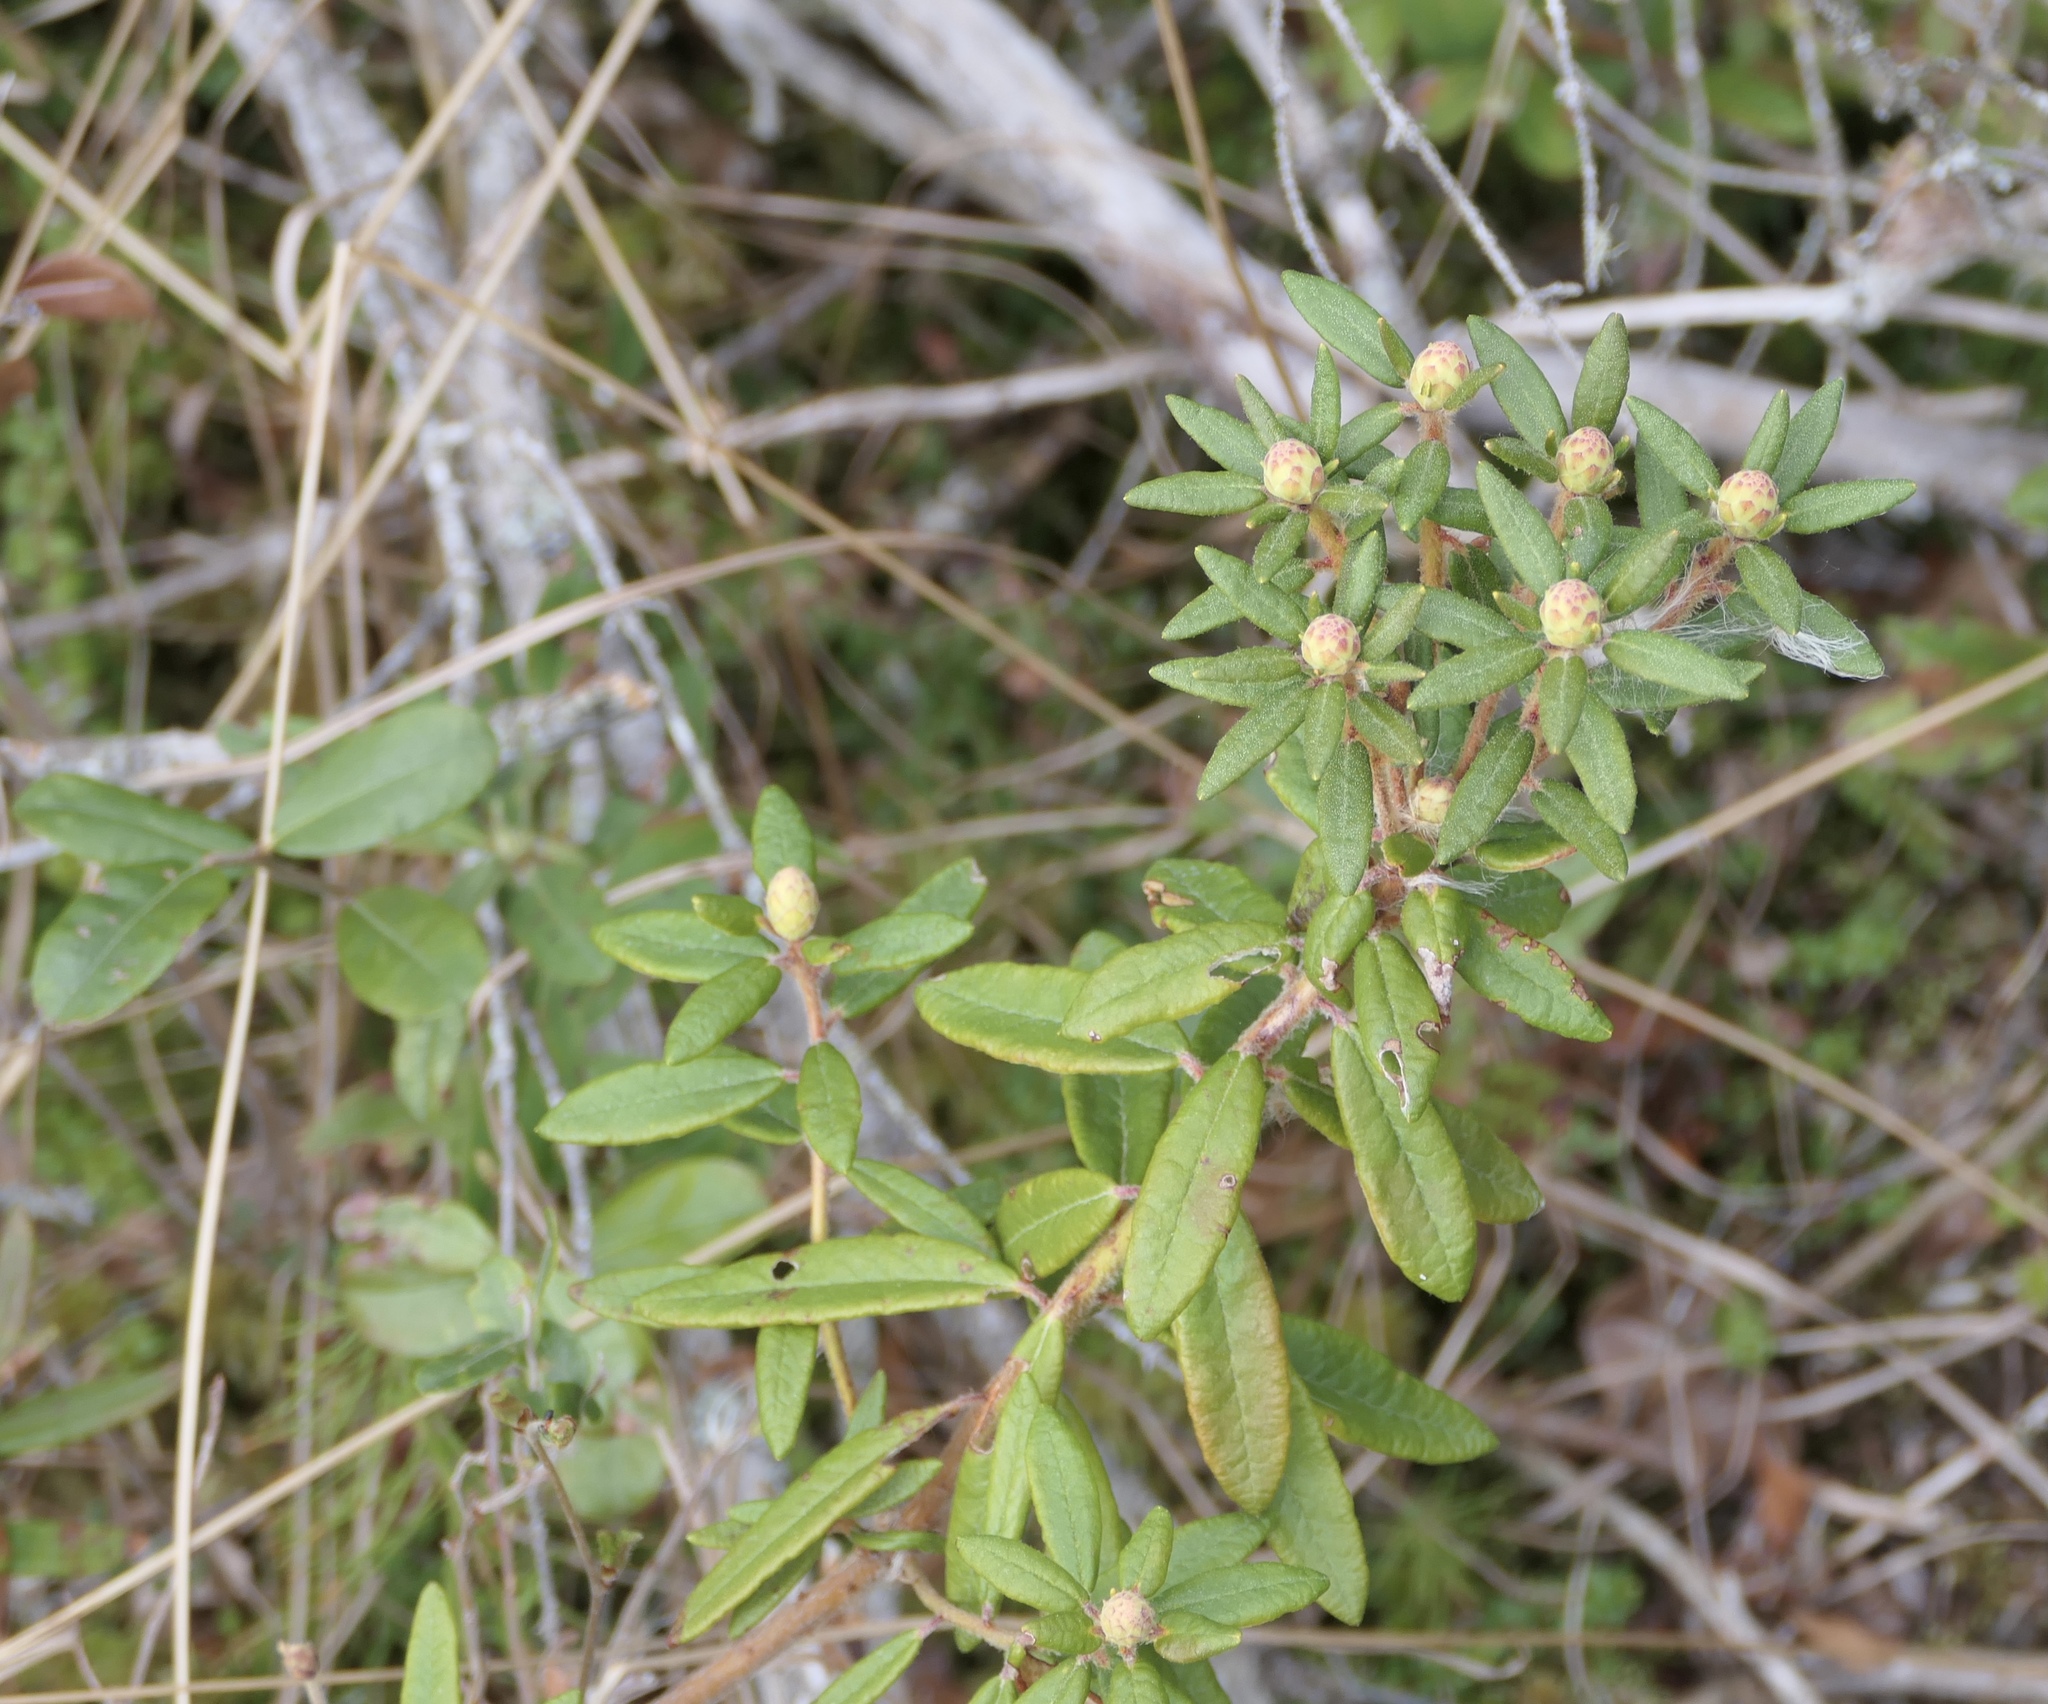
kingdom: Plantae
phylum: Tracheophyta
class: Magnoliopsida
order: Ericales
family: Ericaceae
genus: Rhododendron
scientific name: Rhododendron groenlandicum
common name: Bog labrador tea
